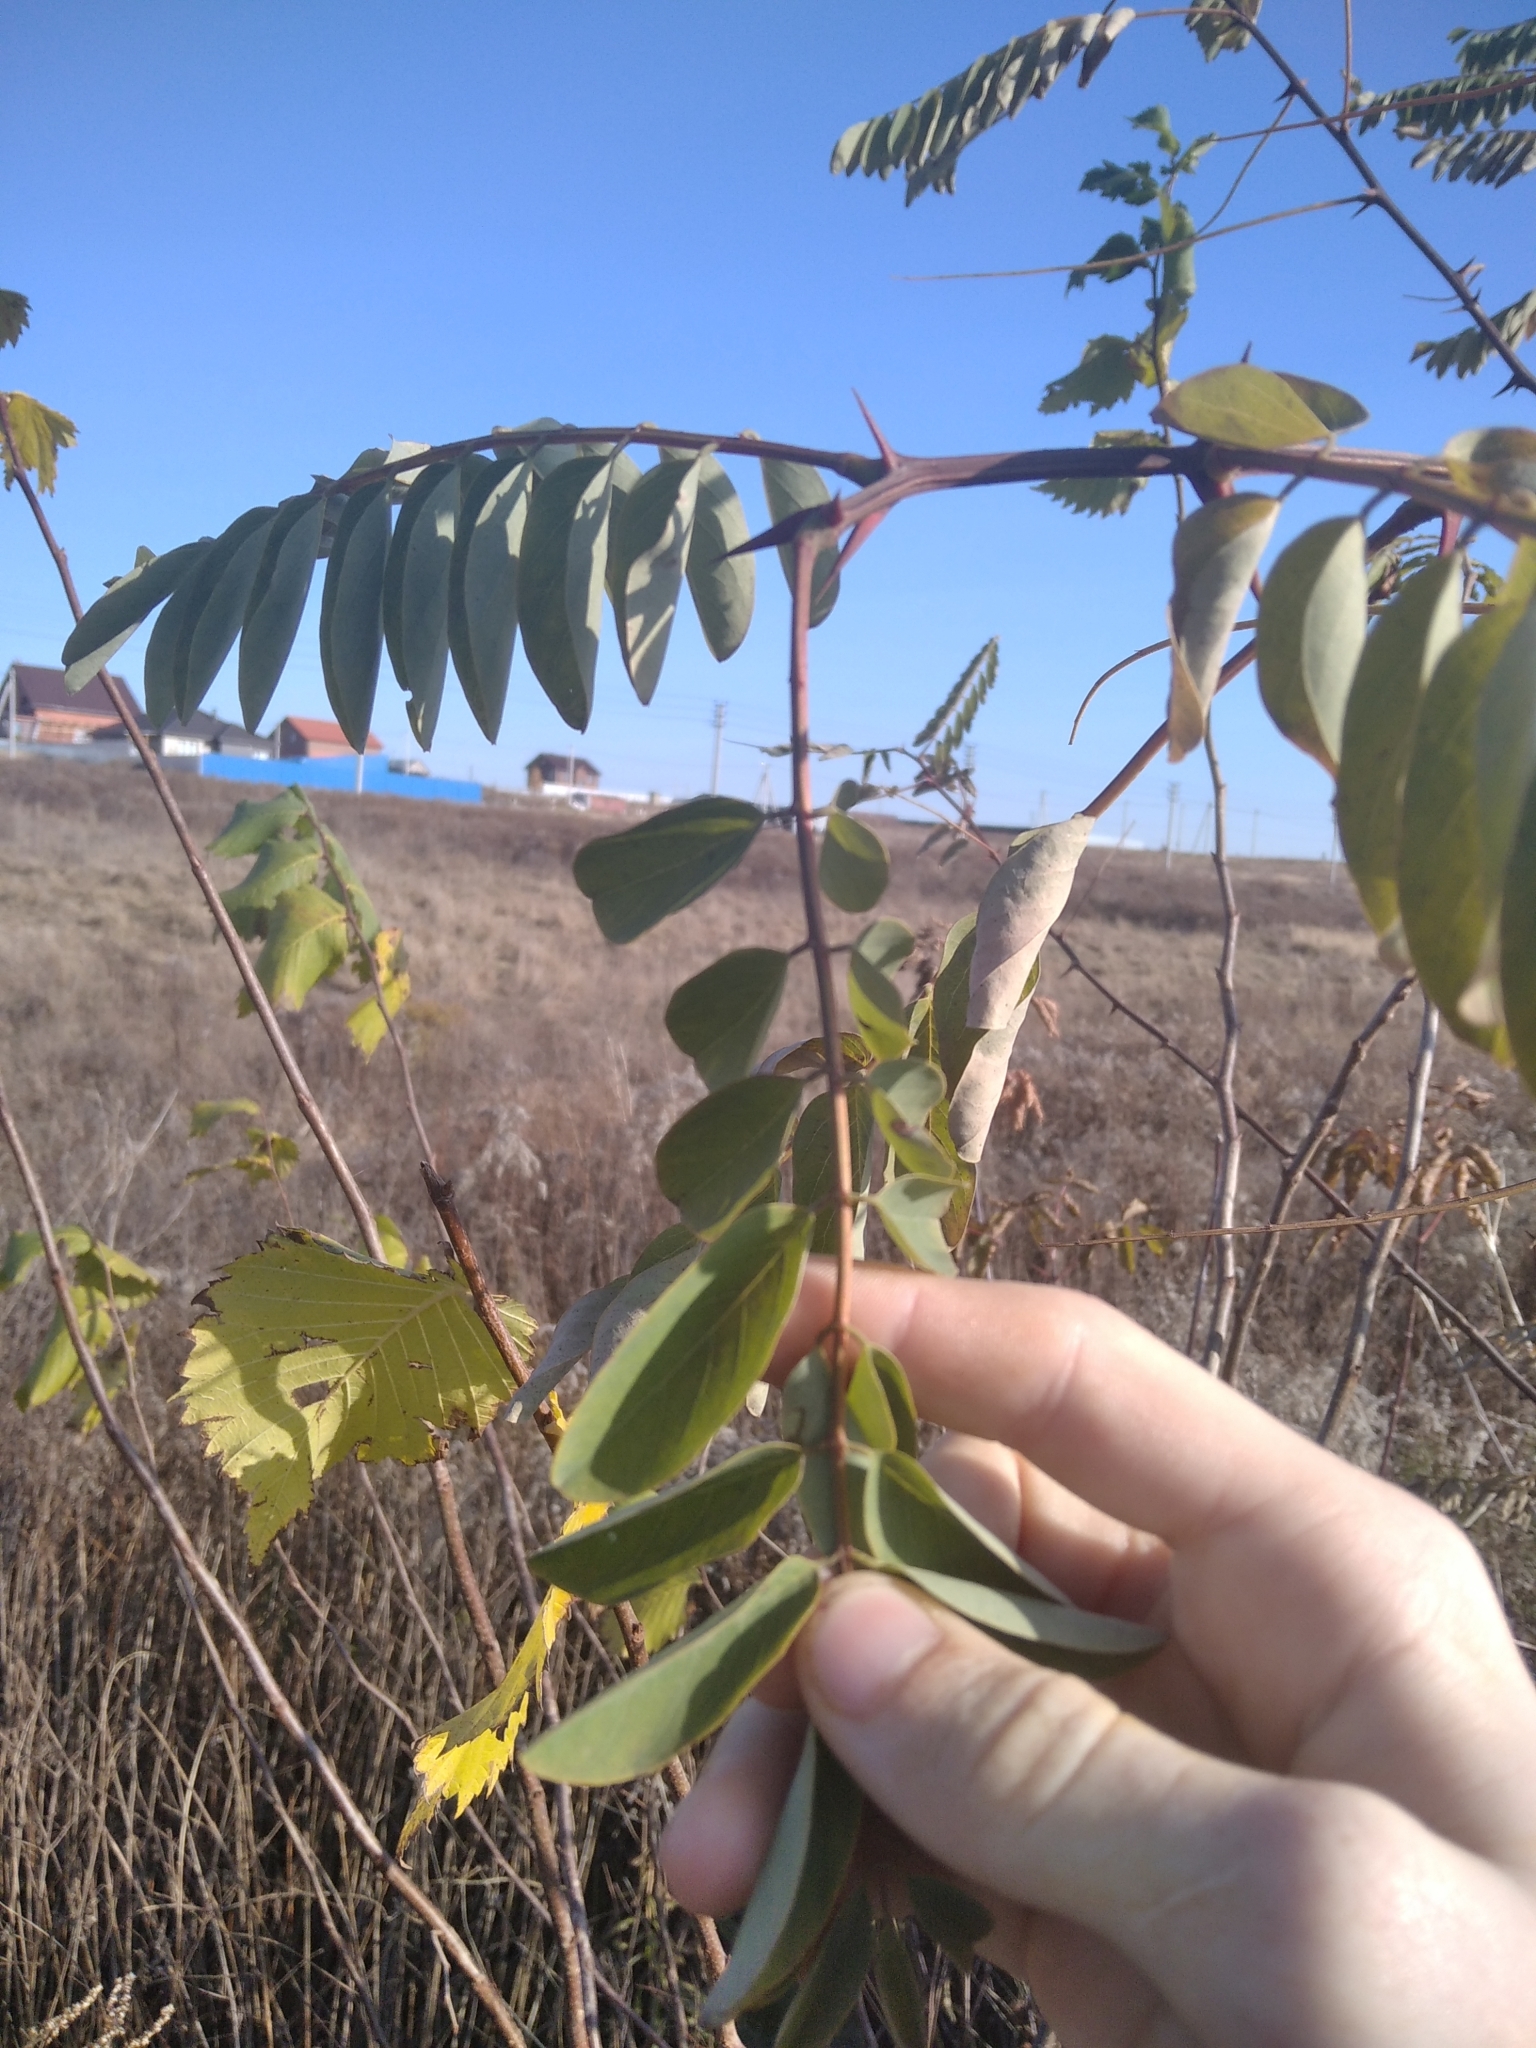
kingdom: Plantae
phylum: Tracheophyta
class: Magnoliopsida
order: Fabales
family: Fabaceae
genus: Robinia
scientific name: Robinia pseudoacacia
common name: Black locust
